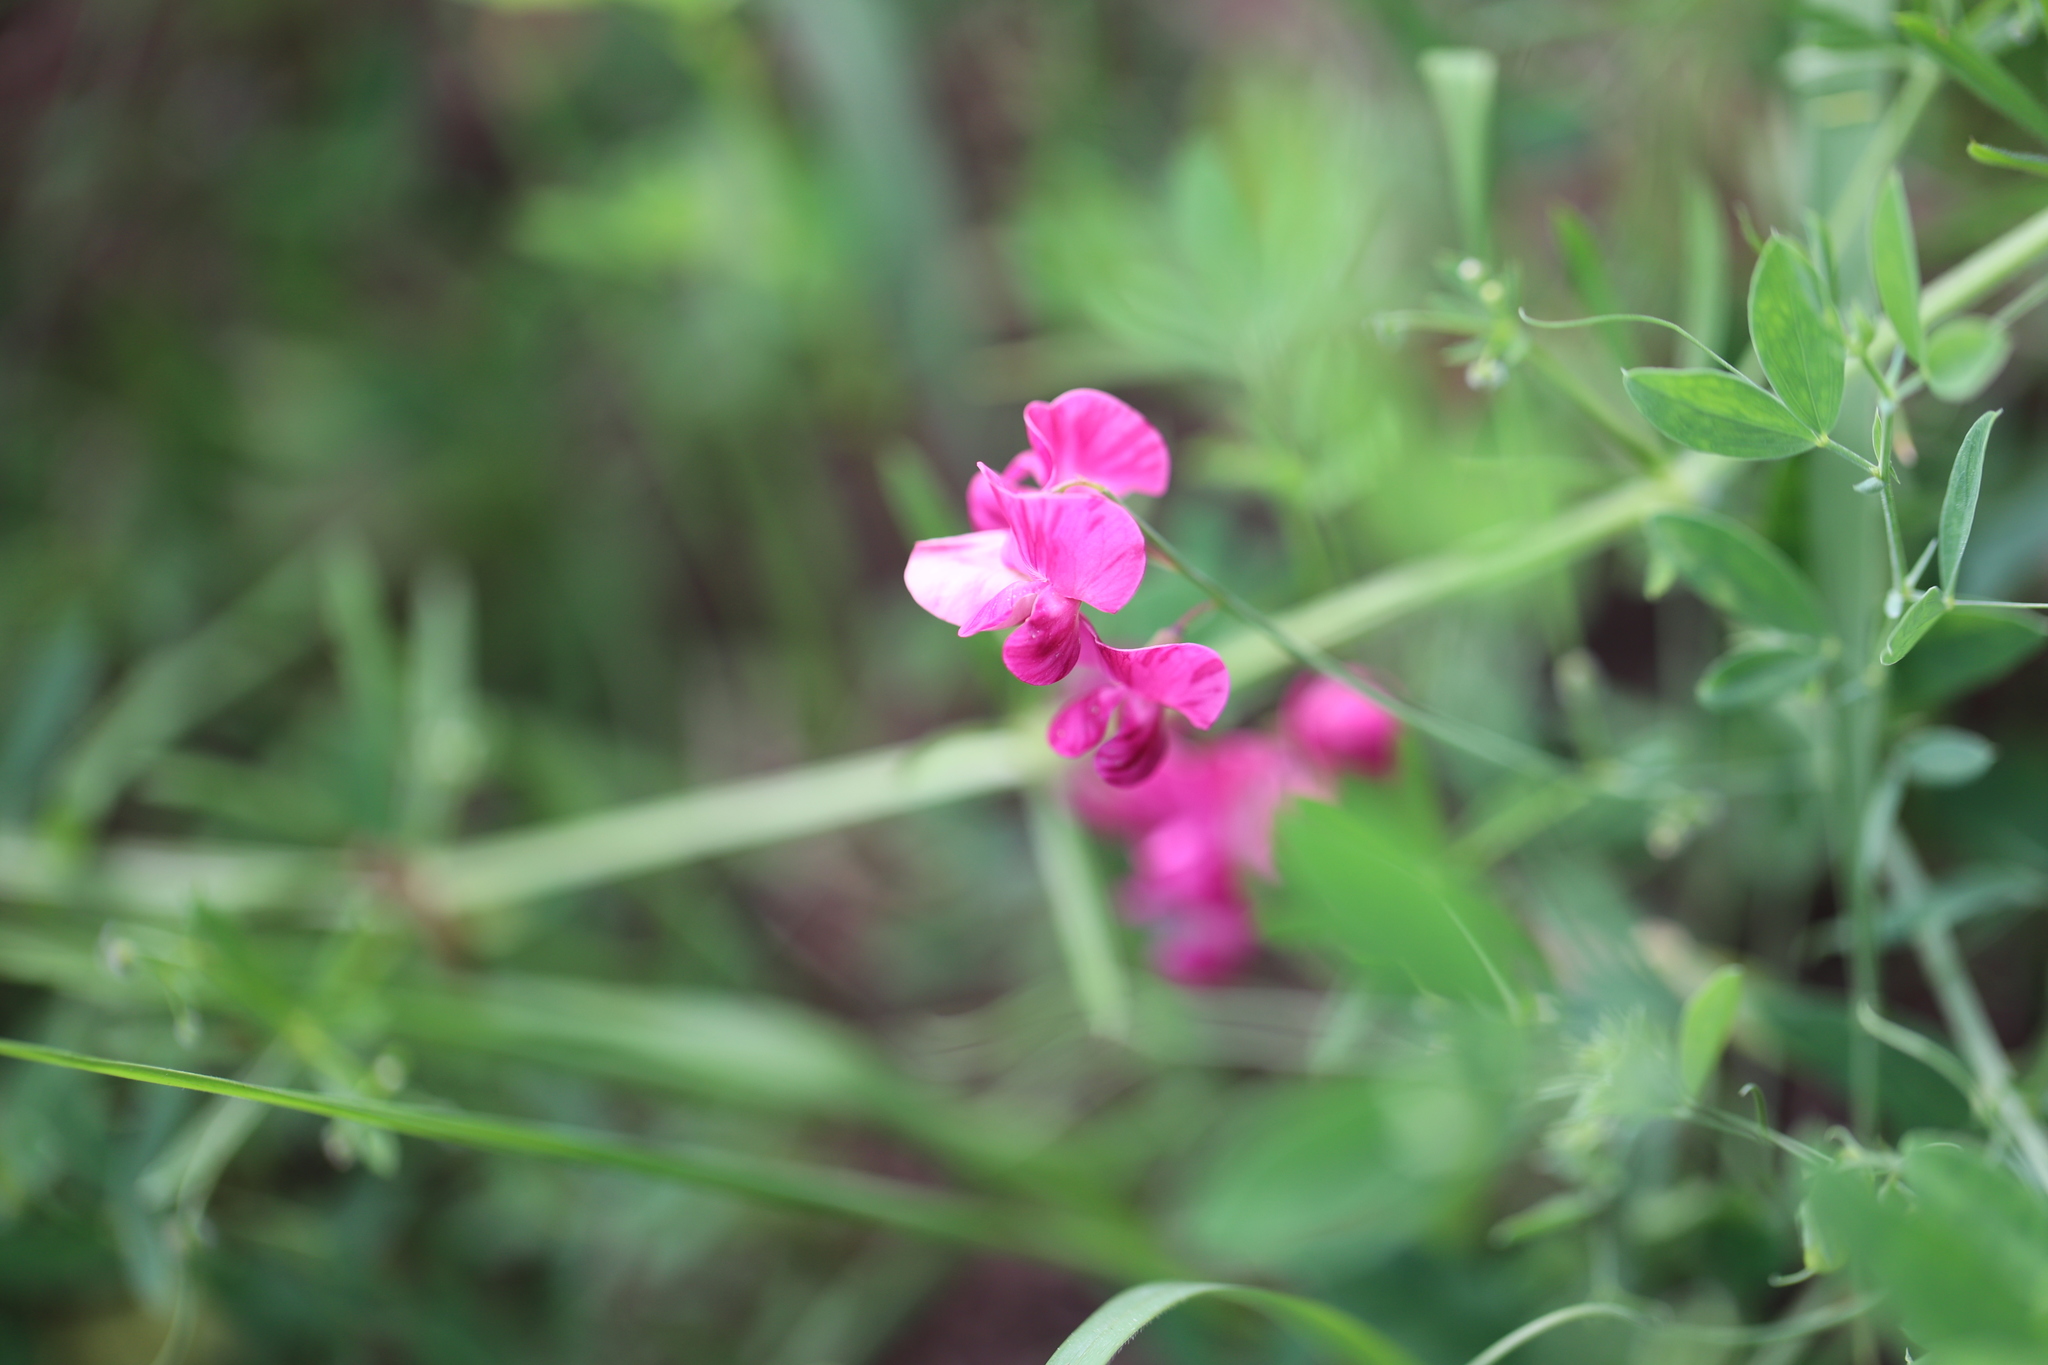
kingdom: Plantae
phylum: Tracheophyta
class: Magnoliopsida
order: Fabales
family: Fabaceae
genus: Lathyrus
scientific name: Lathyrus tuberosus
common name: Tuberous pea
